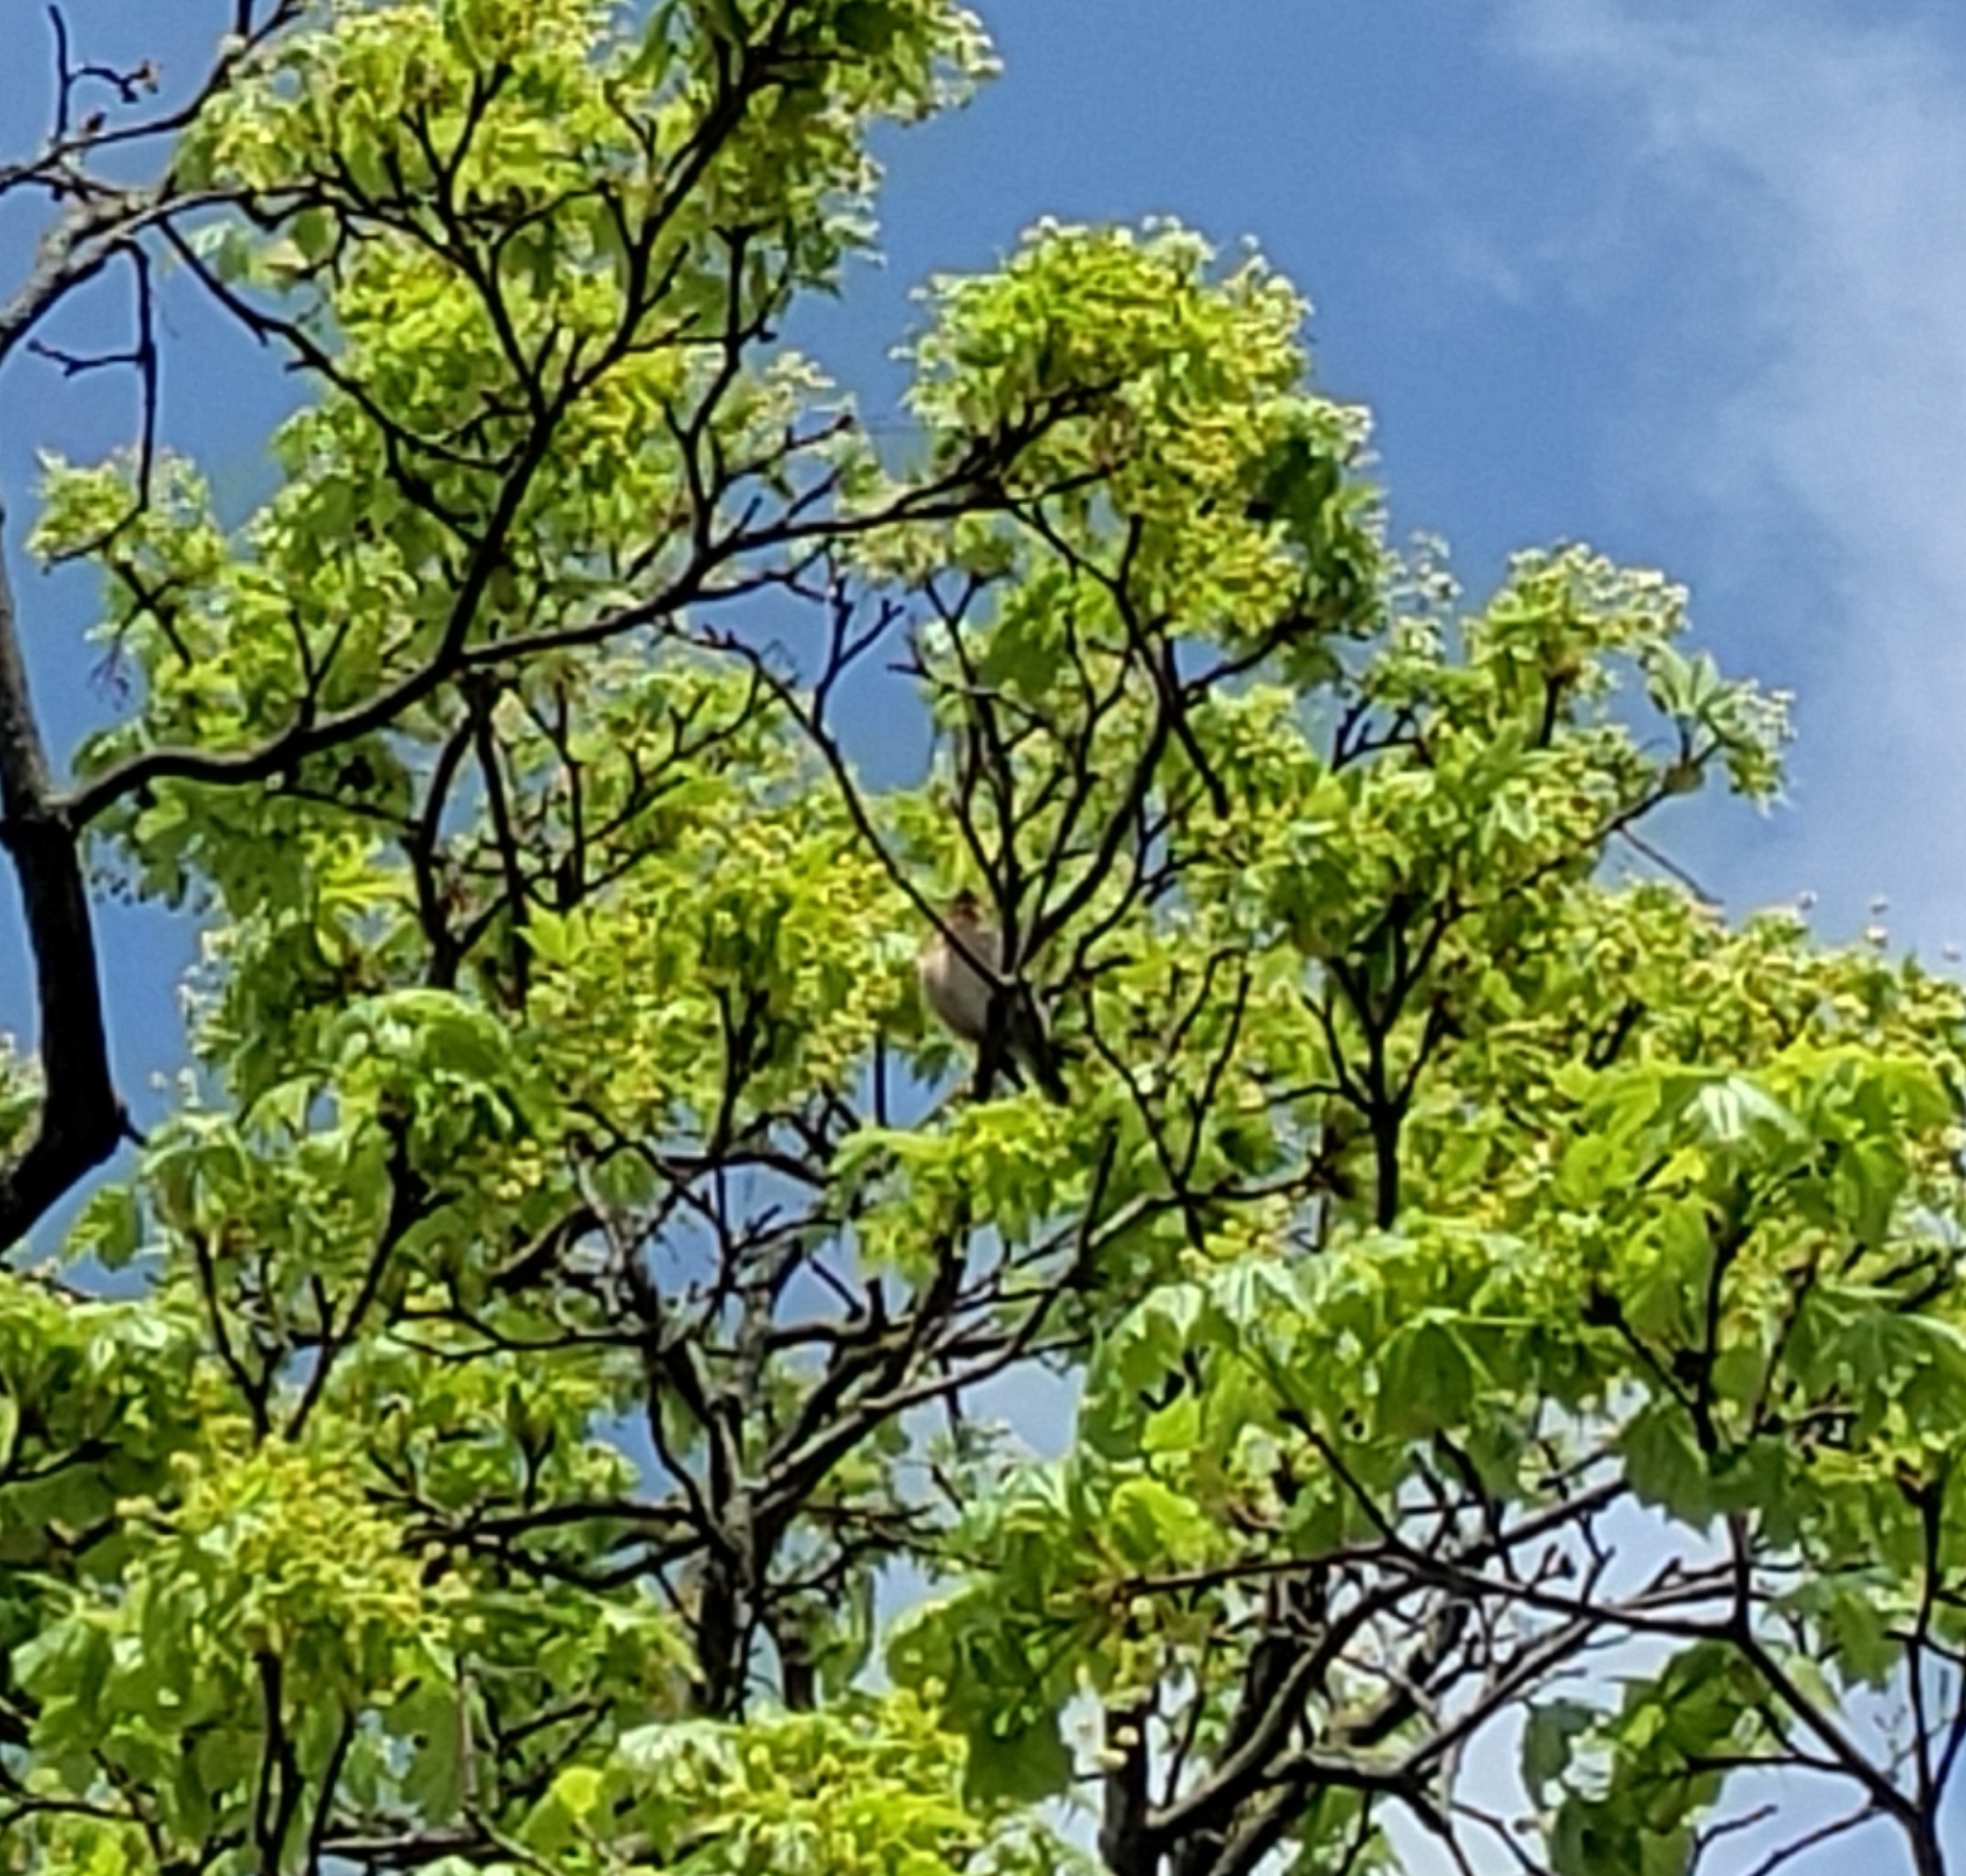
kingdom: Animalia
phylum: Chordata
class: Aves
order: Passeriformes
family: Fringillidae
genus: Fringilla
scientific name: Fringilla coelebs
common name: Common chaffinch
